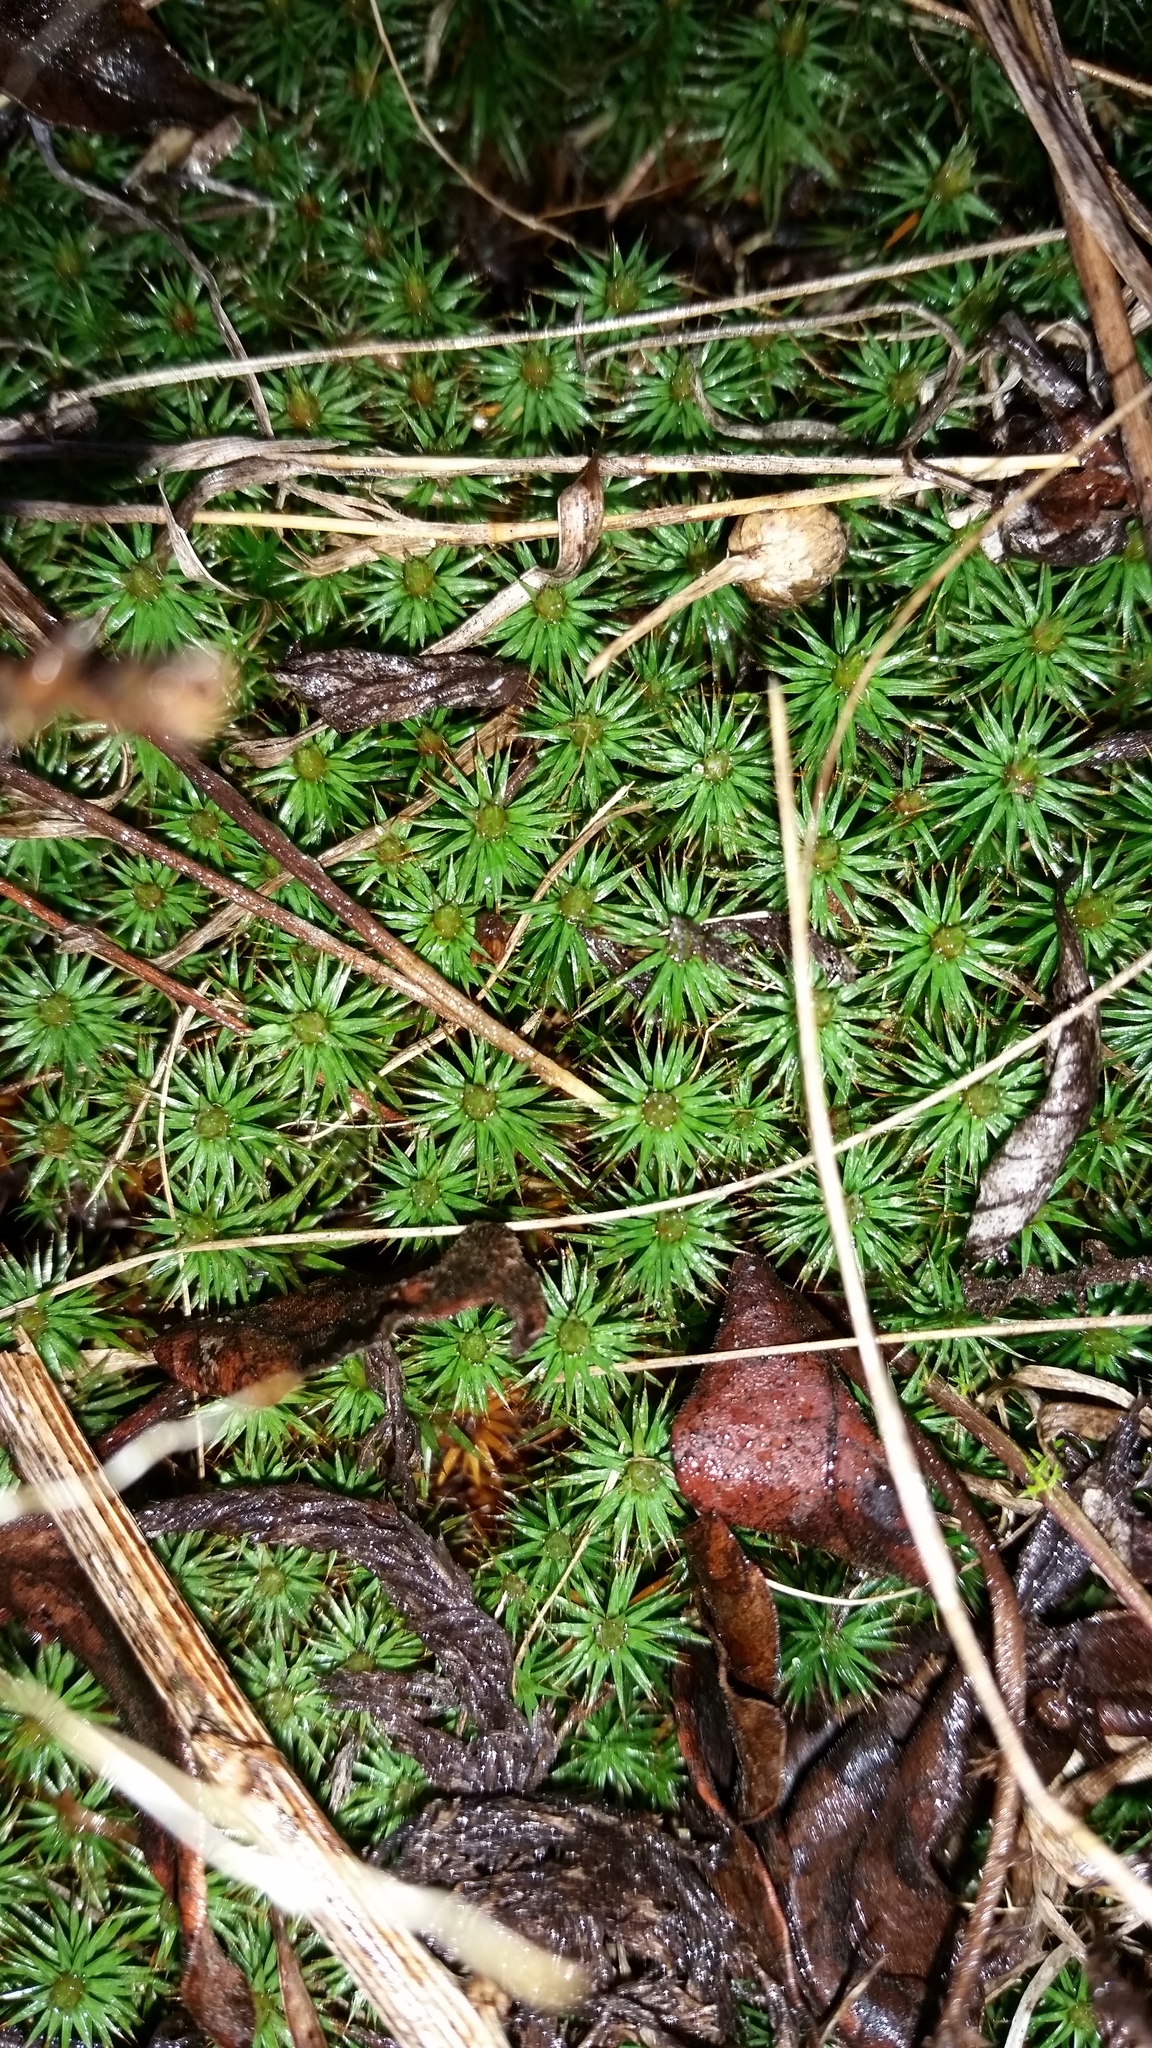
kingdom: Plantae
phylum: Bryophyta
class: Polytrichopsida
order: Polytrichales
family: Polytrichaceae
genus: Polytrichum
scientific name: Polytrichum juniperinum
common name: Juniper haircap moss
